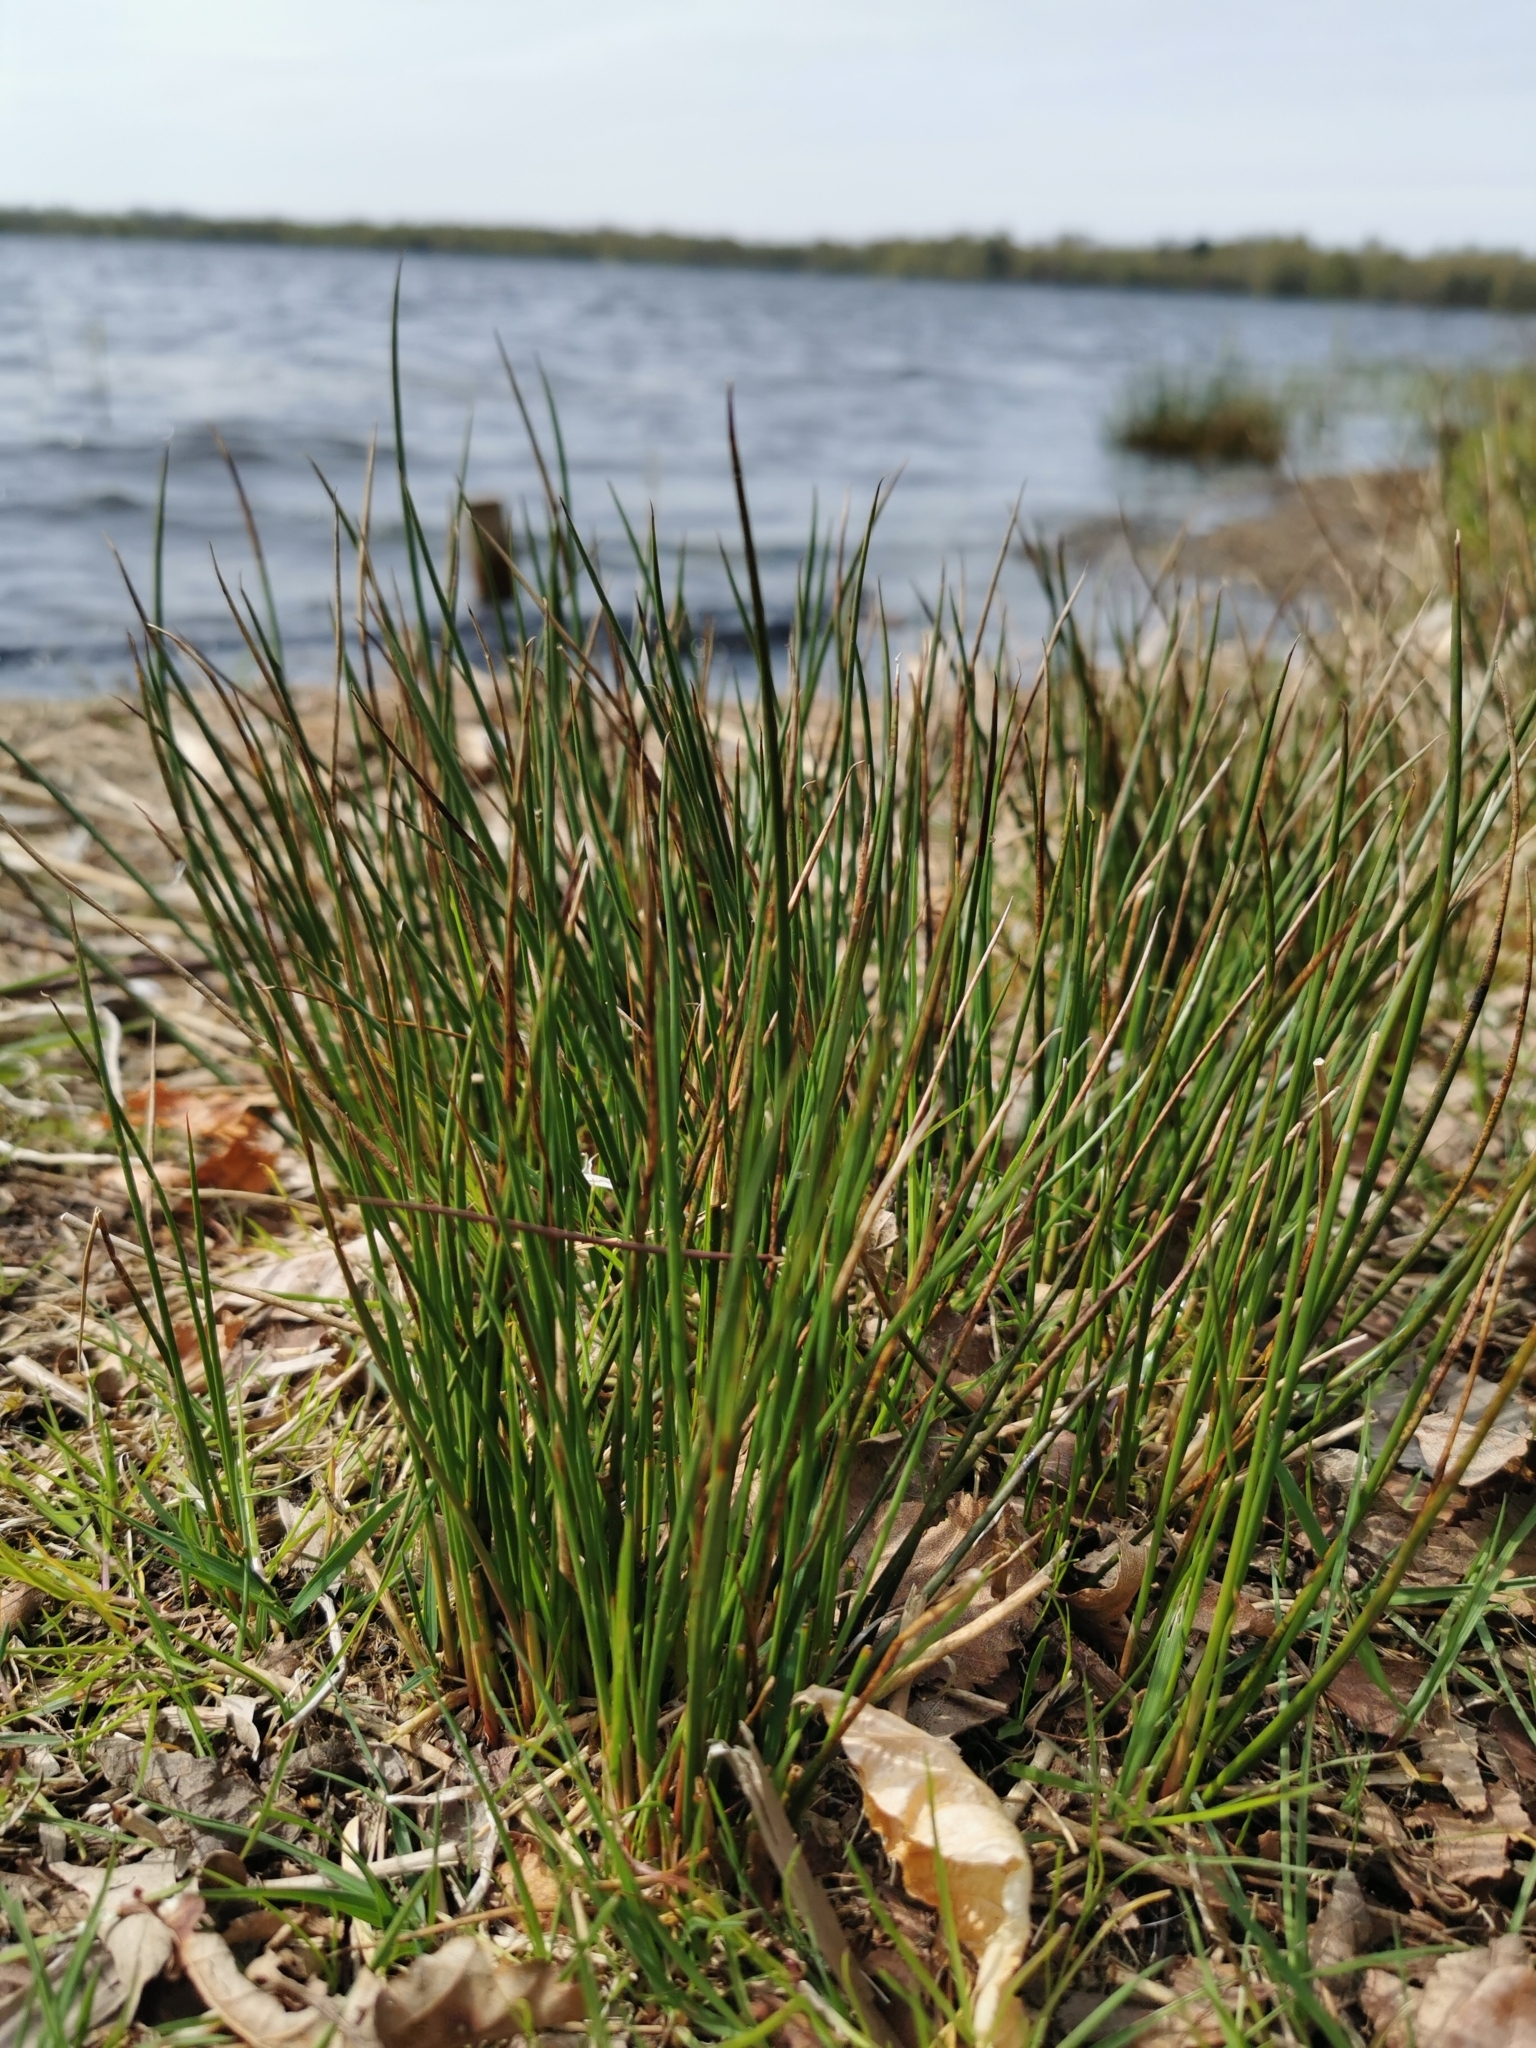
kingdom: Plantae
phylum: Tracheophyta
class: Liliopsida
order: Poales
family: Juncaceae
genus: Juncus
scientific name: Juncus effusus
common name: Soft rush
